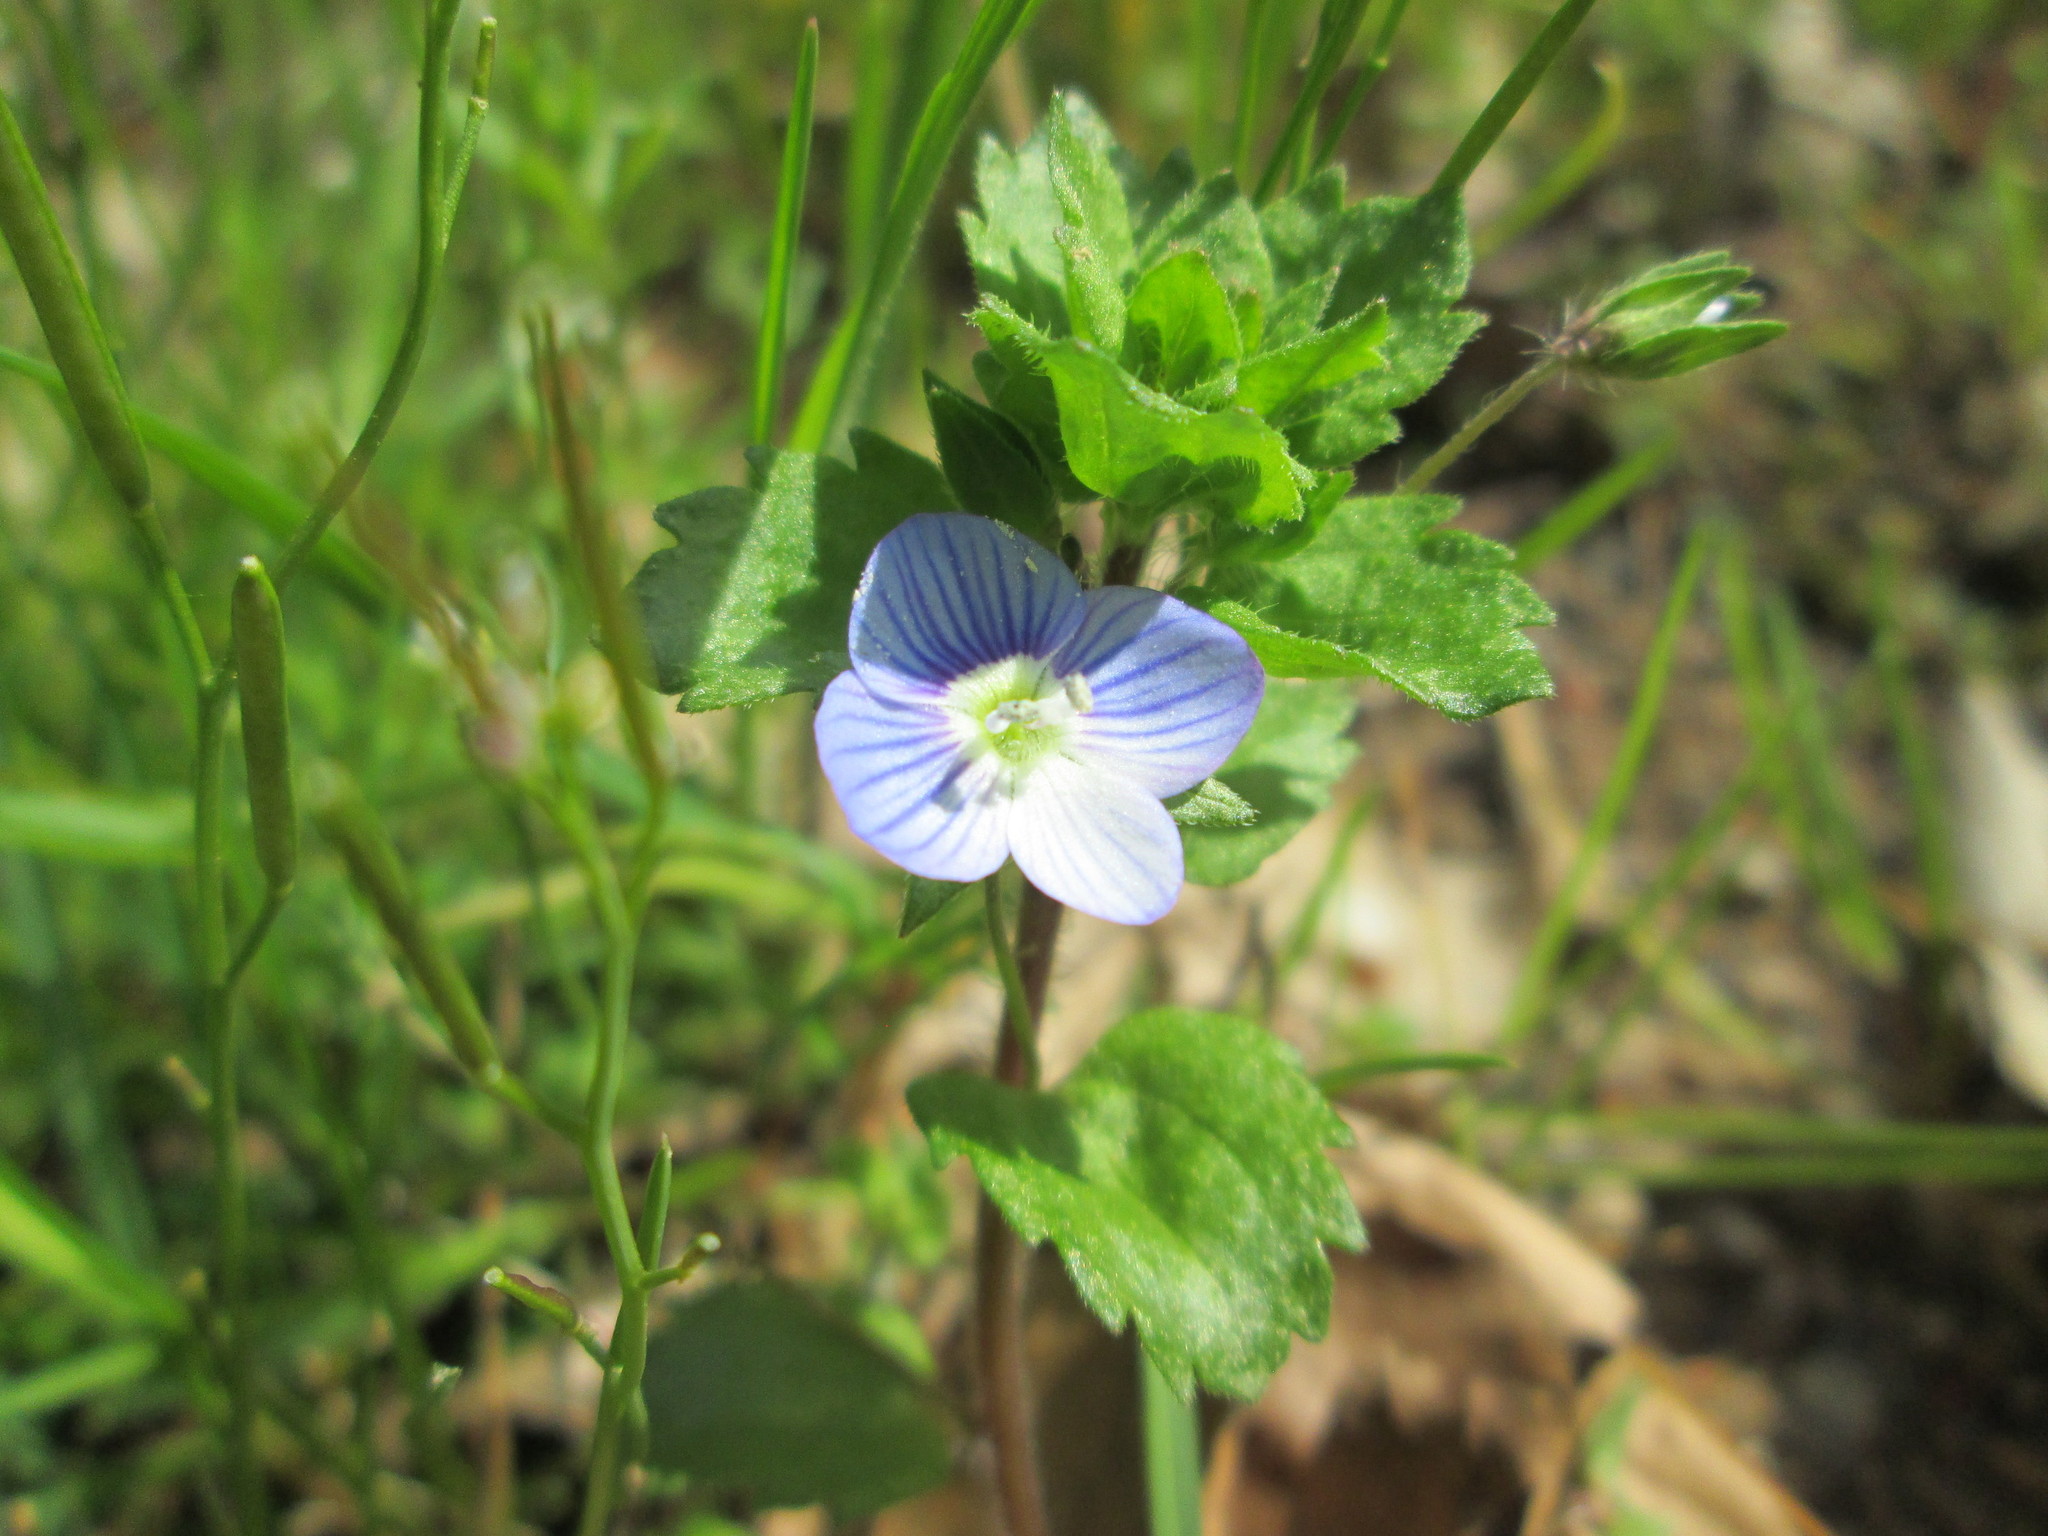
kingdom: Plantae
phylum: Tracheophyta
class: Magnoliopsida
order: Lamiales
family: Plantaginaceae
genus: Veronica
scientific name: Veronica persica
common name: Common field-speedwell
